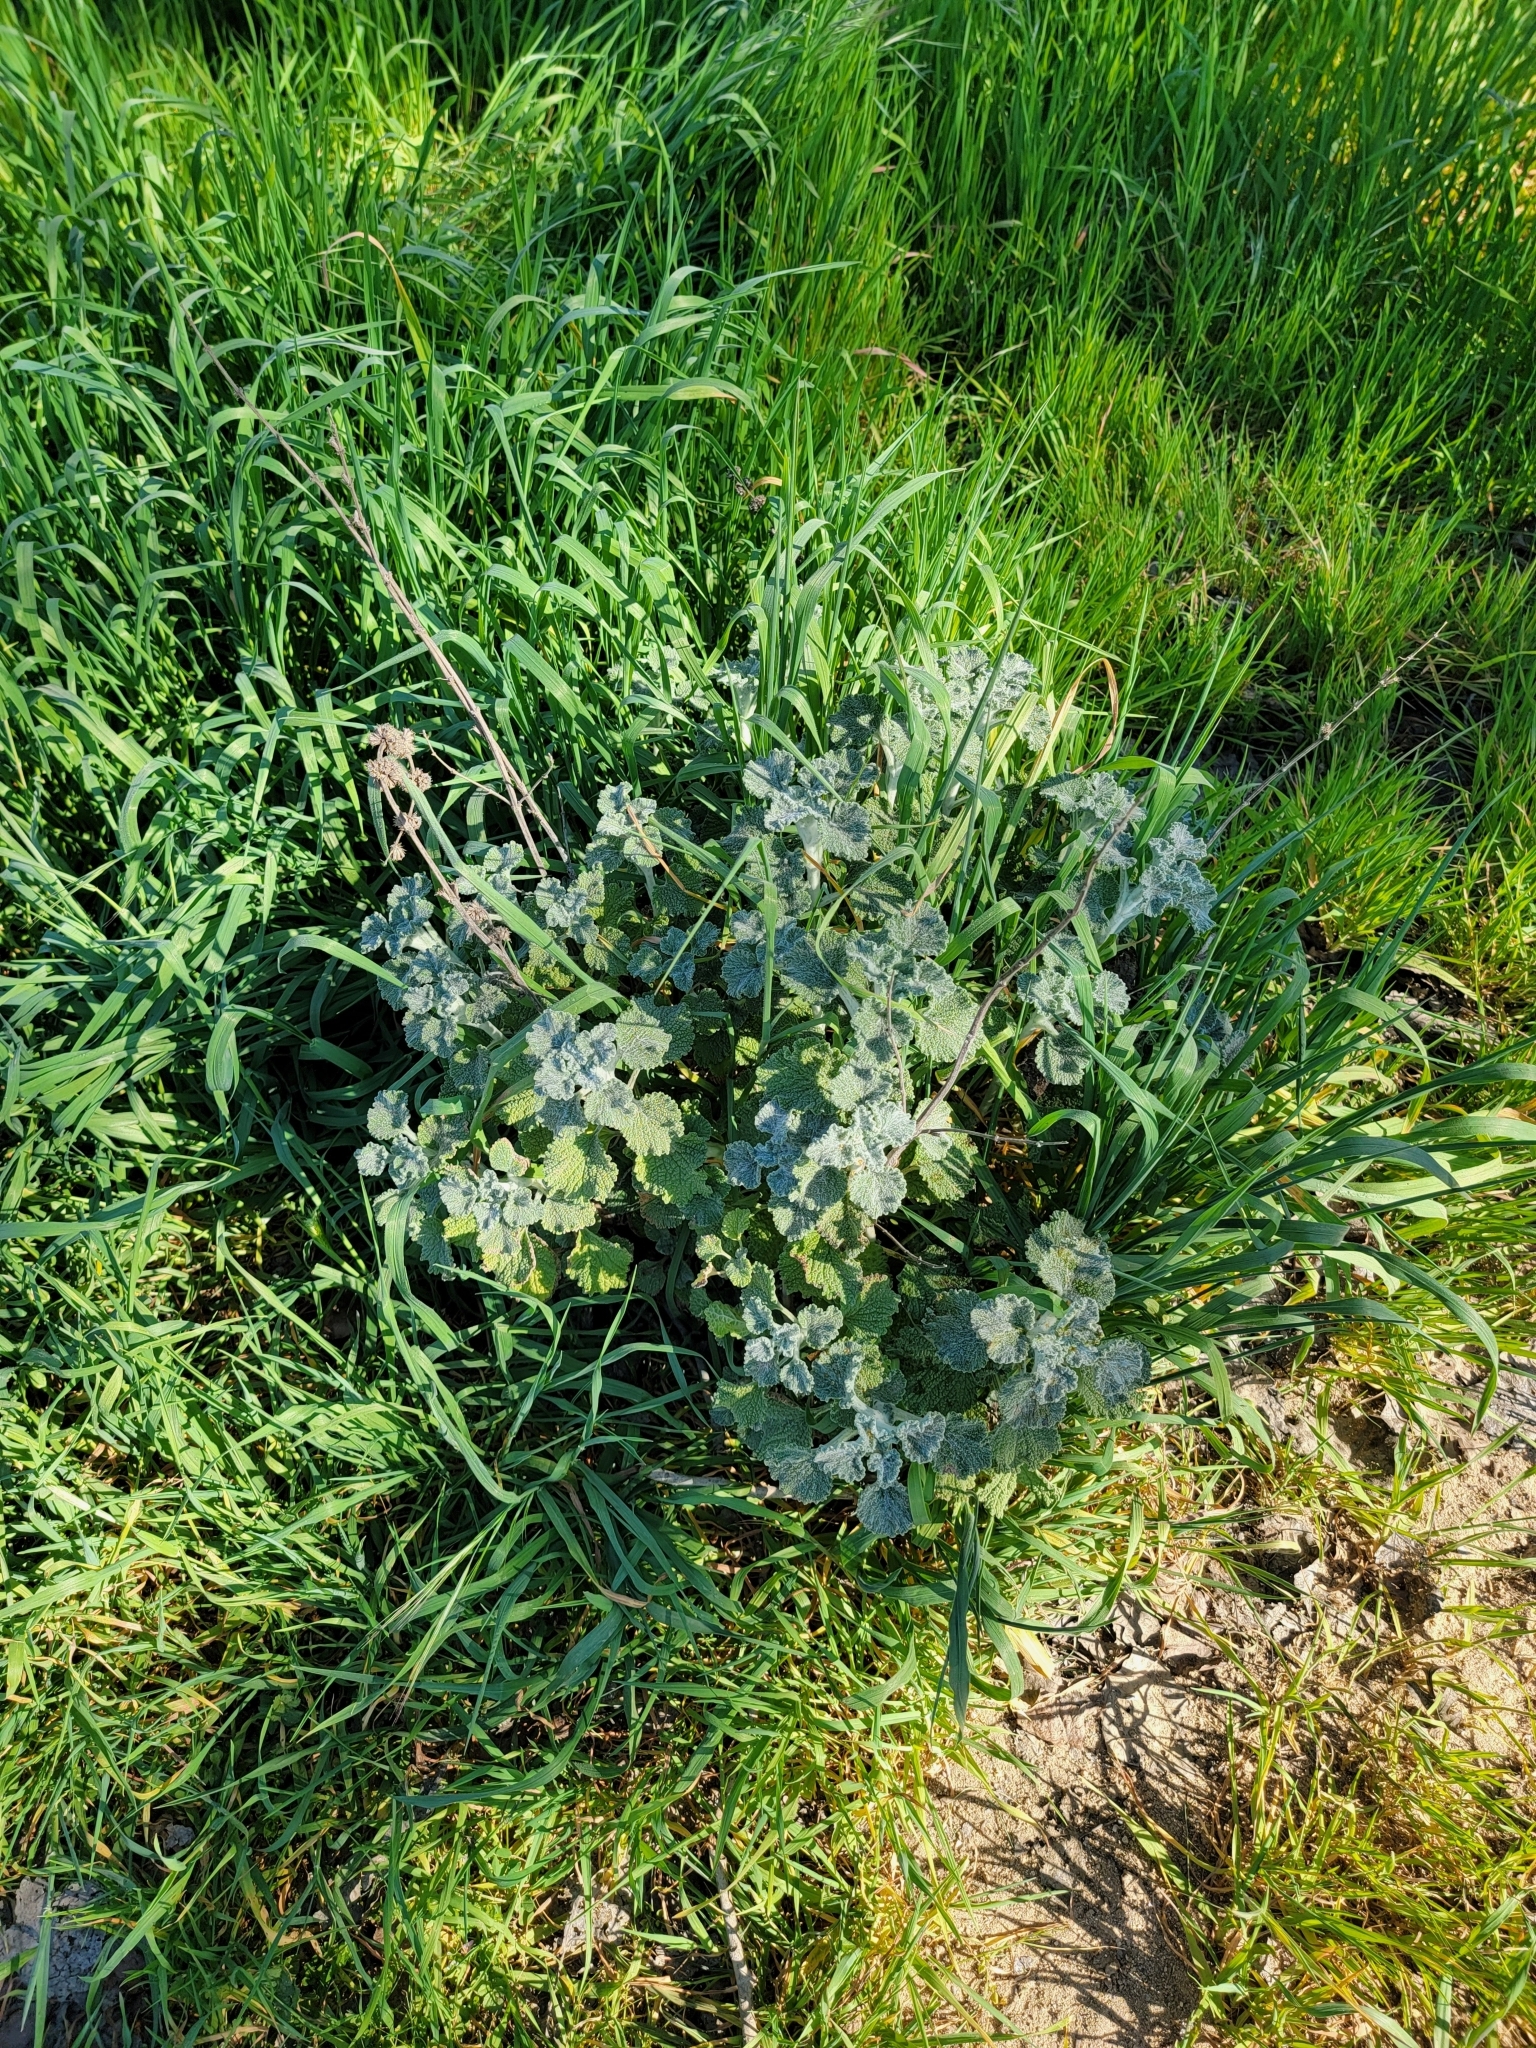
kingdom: Plantae
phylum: Tracheophyta
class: Magnoliopsida
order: Lamiales
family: Lamiaceae
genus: Marrubium
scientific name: Marrubium vulgare
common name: Horehound
